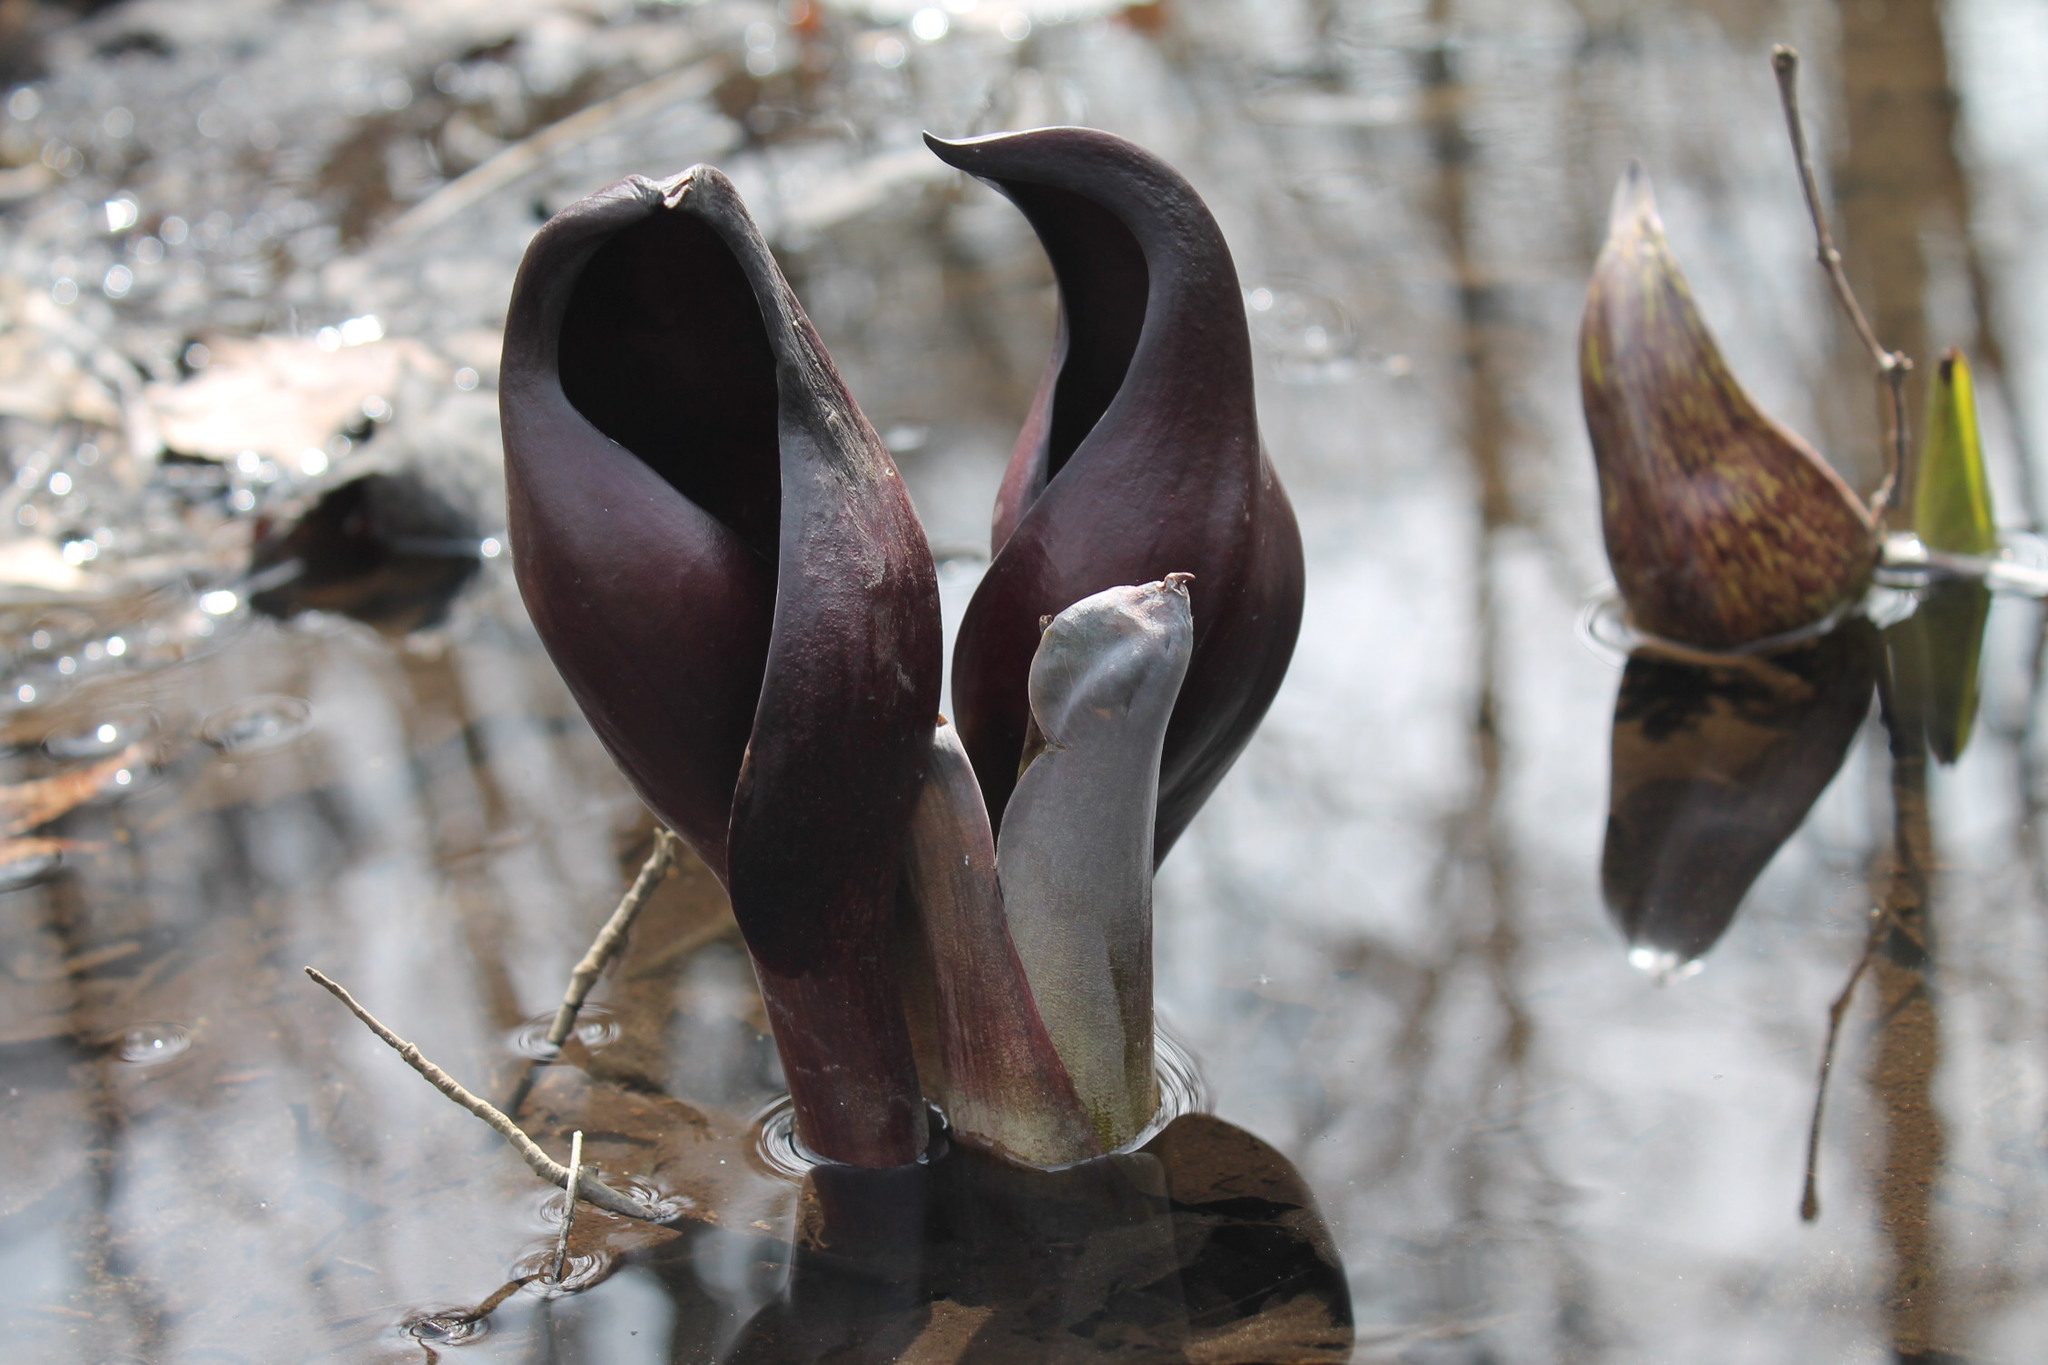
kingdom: Plantae
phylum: Tracheophyta
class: Liliopsida
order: Alismatales
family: Araceae
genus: Symplocarpus
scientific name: Symplocarpus foetidus
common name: Eastern skunk cabbage
